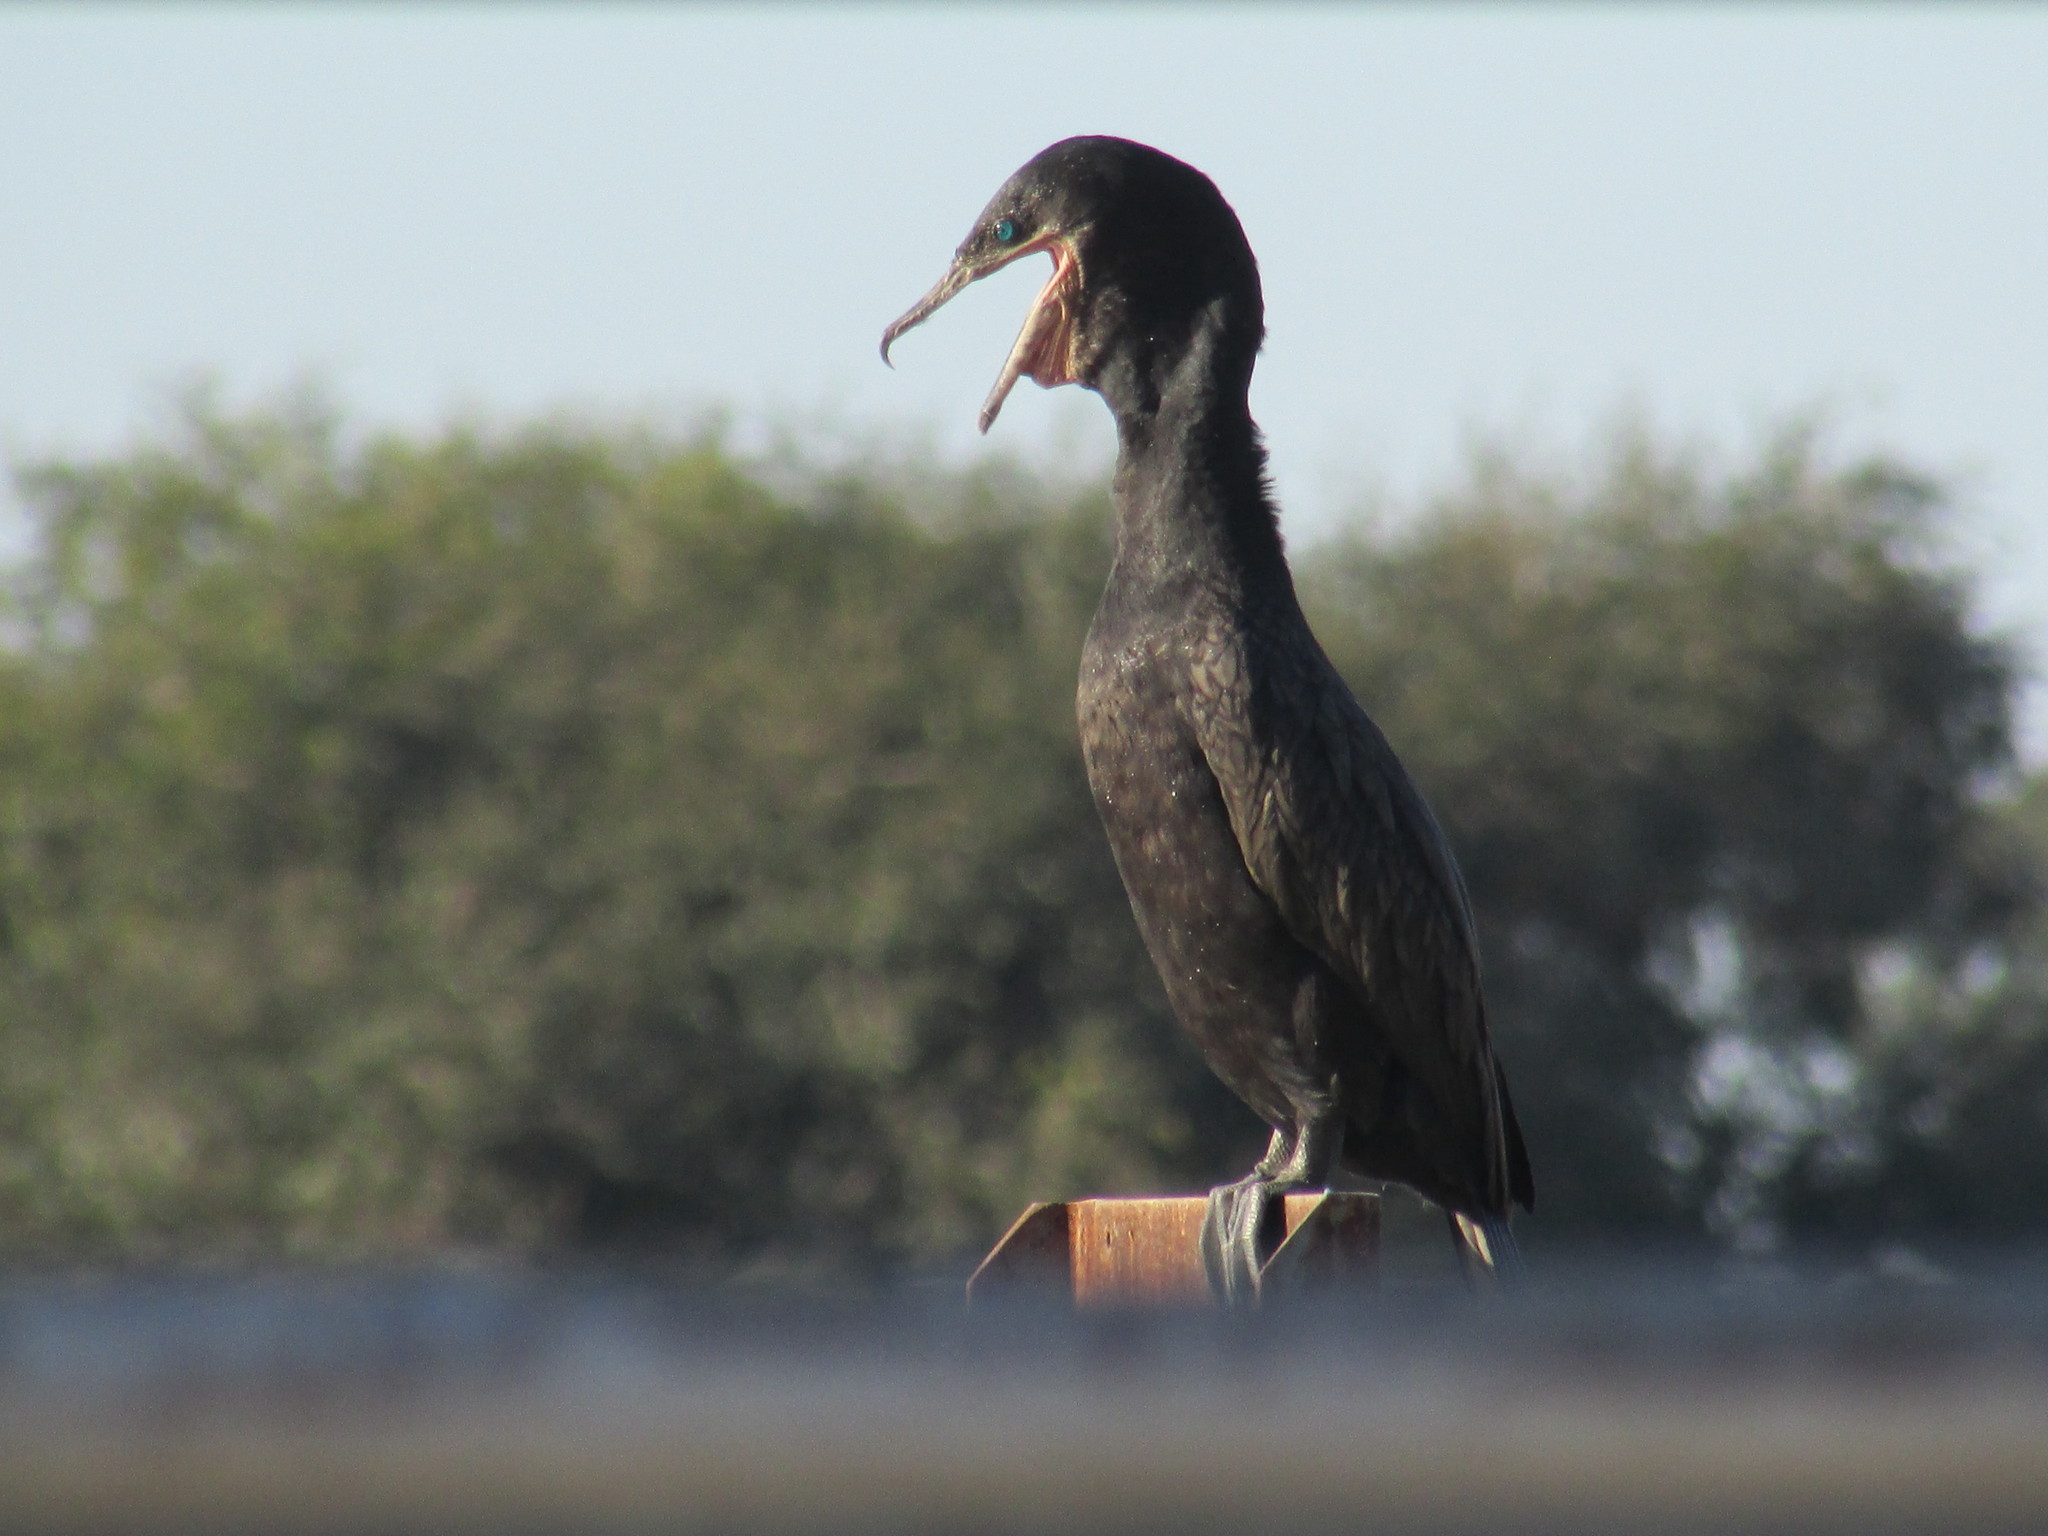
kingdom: Animalia
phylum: Chordata
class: Aves
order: Suliformes
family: Phalacrocoracidae
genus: Phalacrocorax
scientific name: Phalacrocorax brasilianus
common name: Neotropic cormorant
